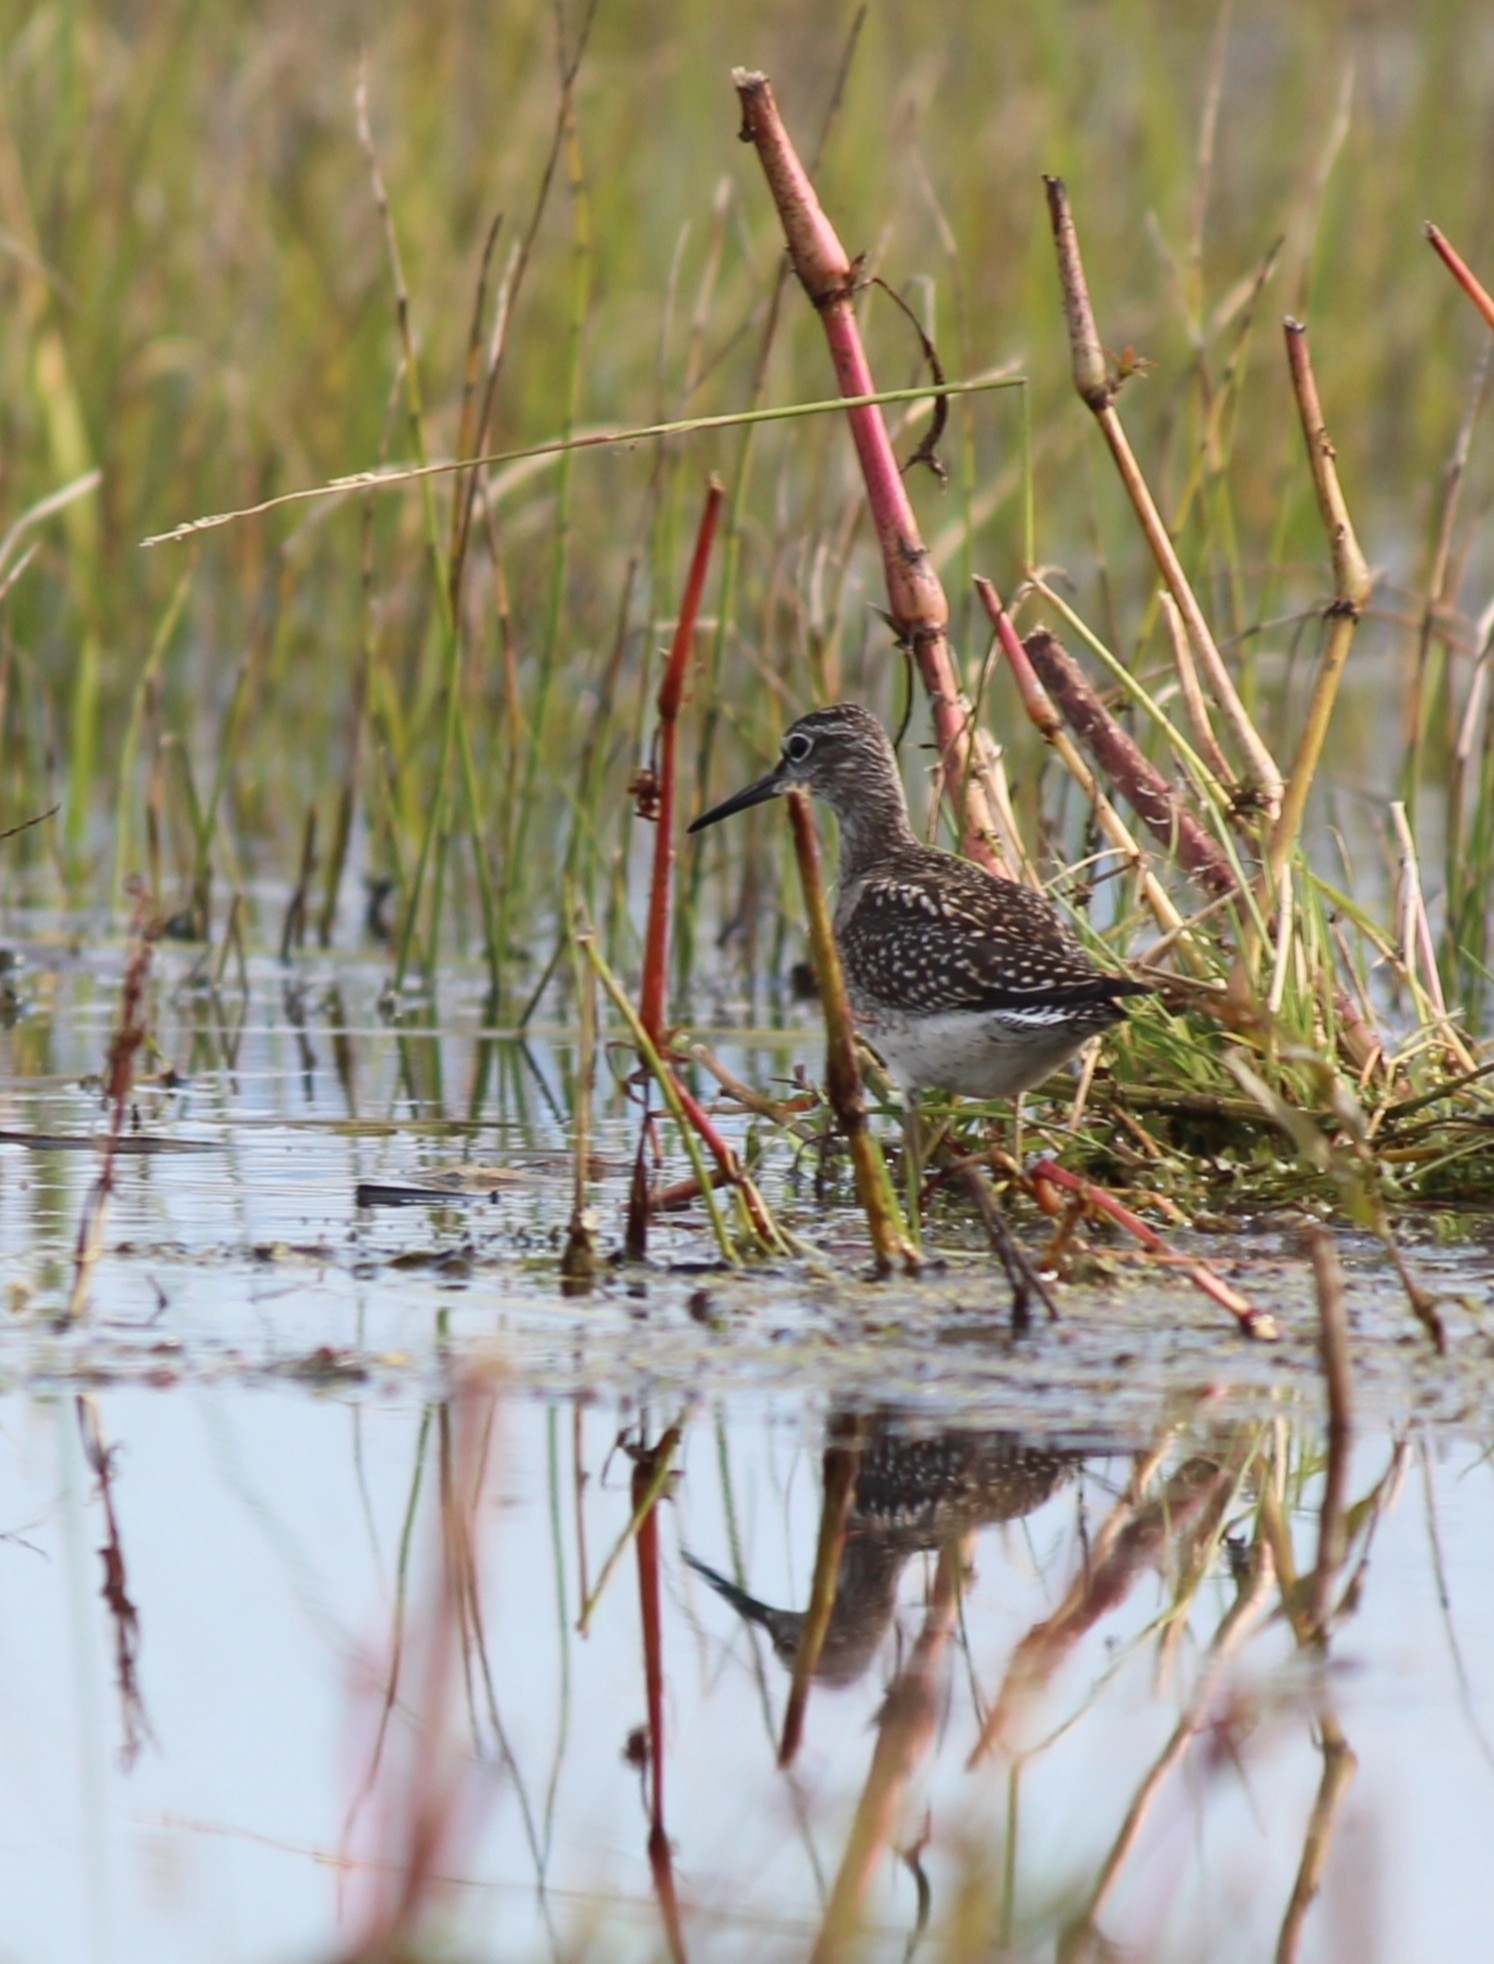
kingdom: Animalia
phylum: Chordata
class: Aves
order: Charadriiformes
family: Scolopacidae
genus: Tringa
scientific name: Tringa glareola
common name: Wood sandpiper
